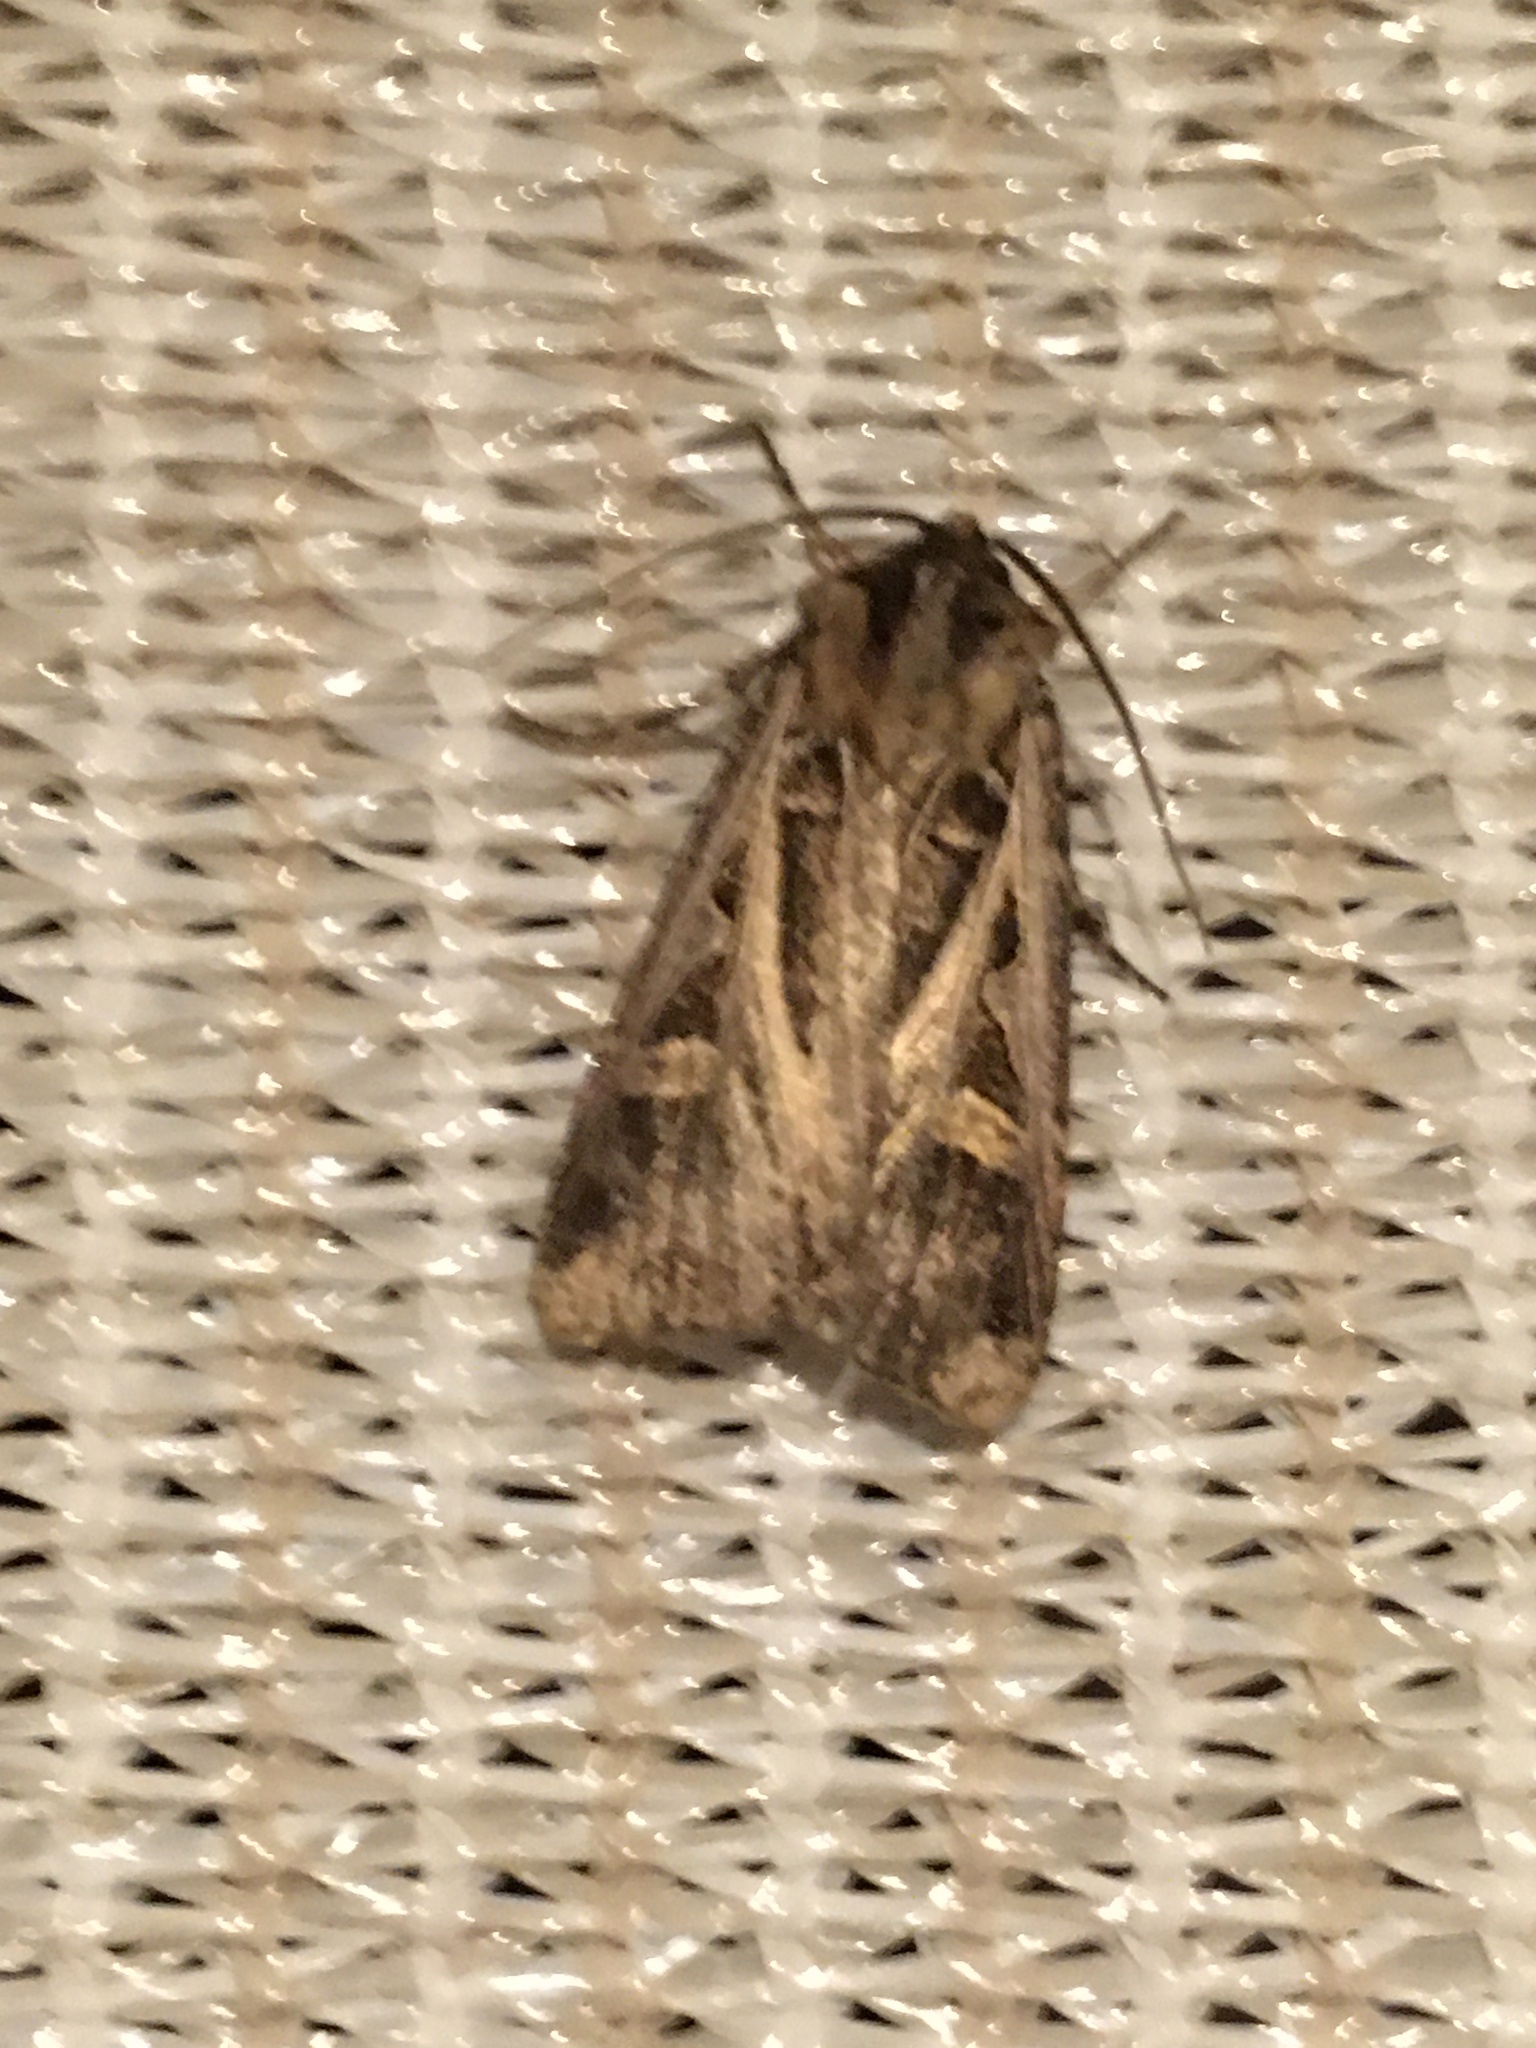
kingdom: Animalia
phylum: Arthropoda
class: Insecta
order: Lepidoptera
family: Noctuidae
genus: Feltia
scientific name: Feltia jaculifera
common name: Dingy cutworm moth
